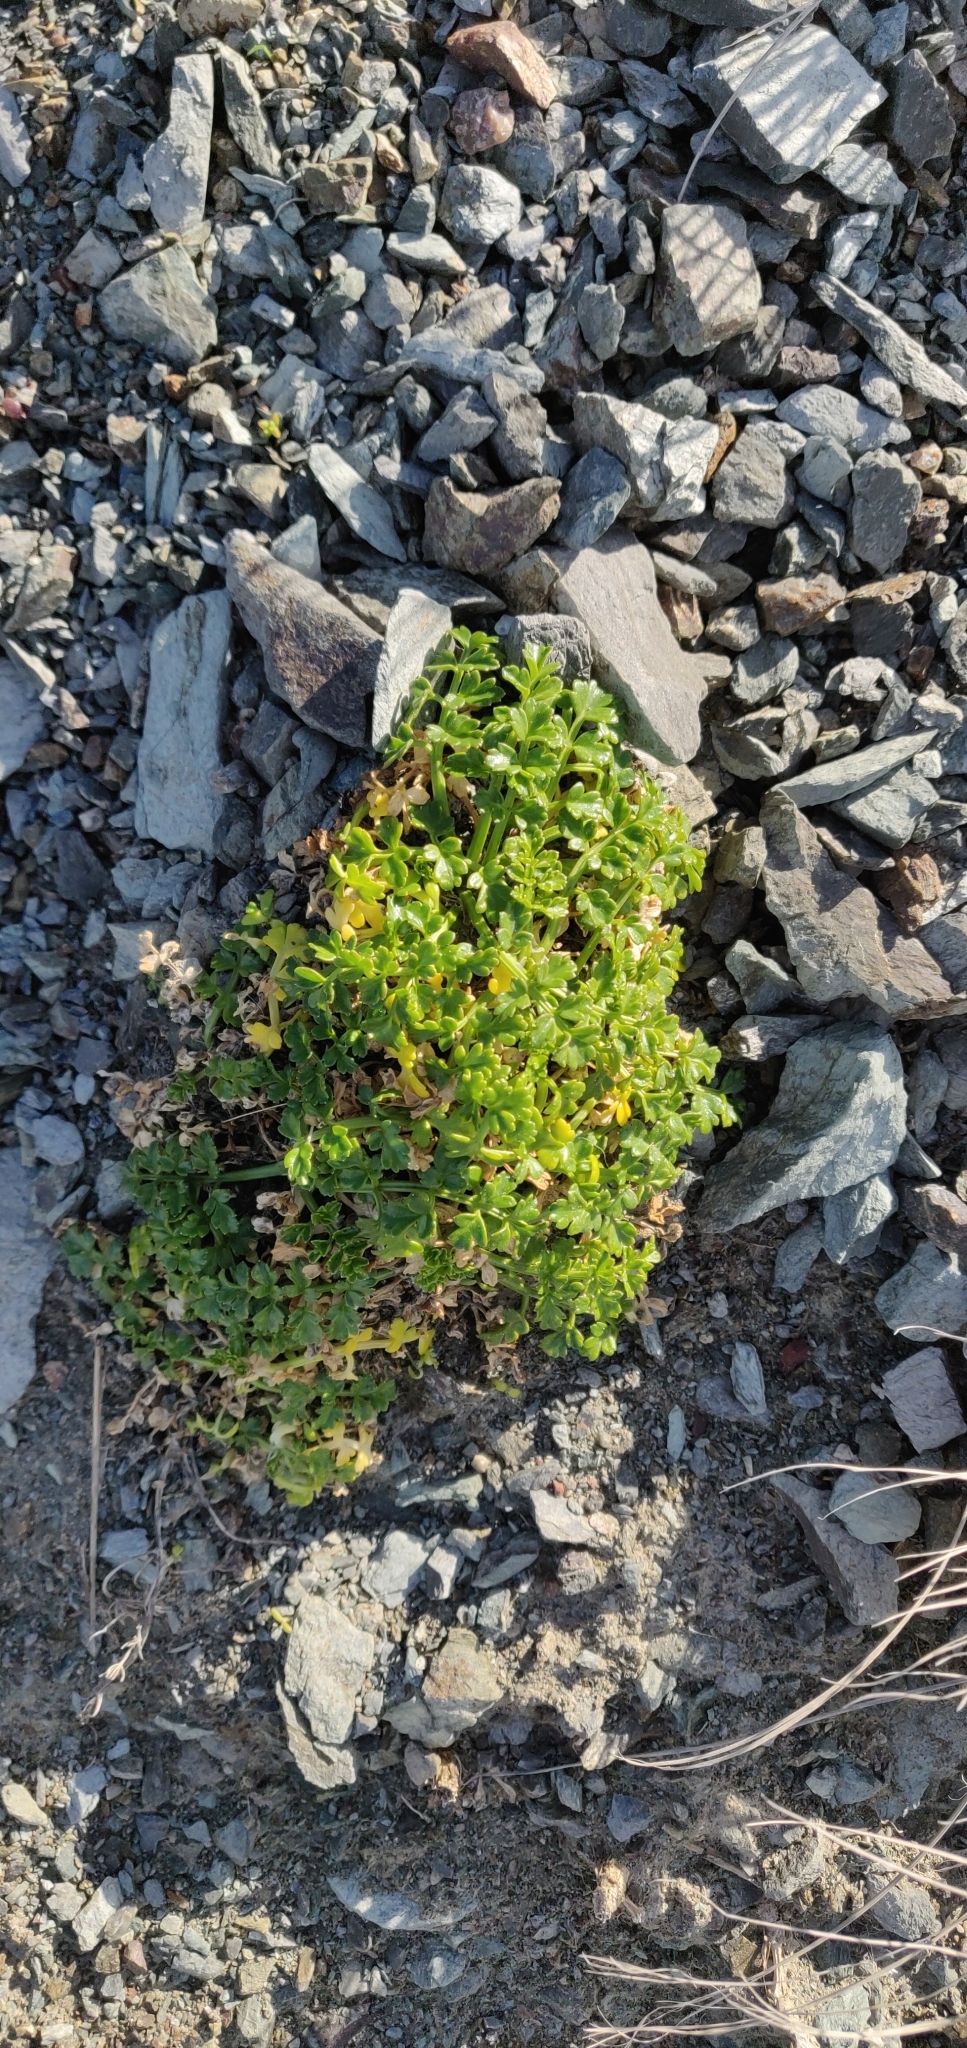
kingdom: Plantae
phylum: Tracheophyta
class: Magnoliopsida
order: Apiales
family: Apiaceae
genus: Apium
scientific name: Apium prostratum
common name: Prostrate marshwort
